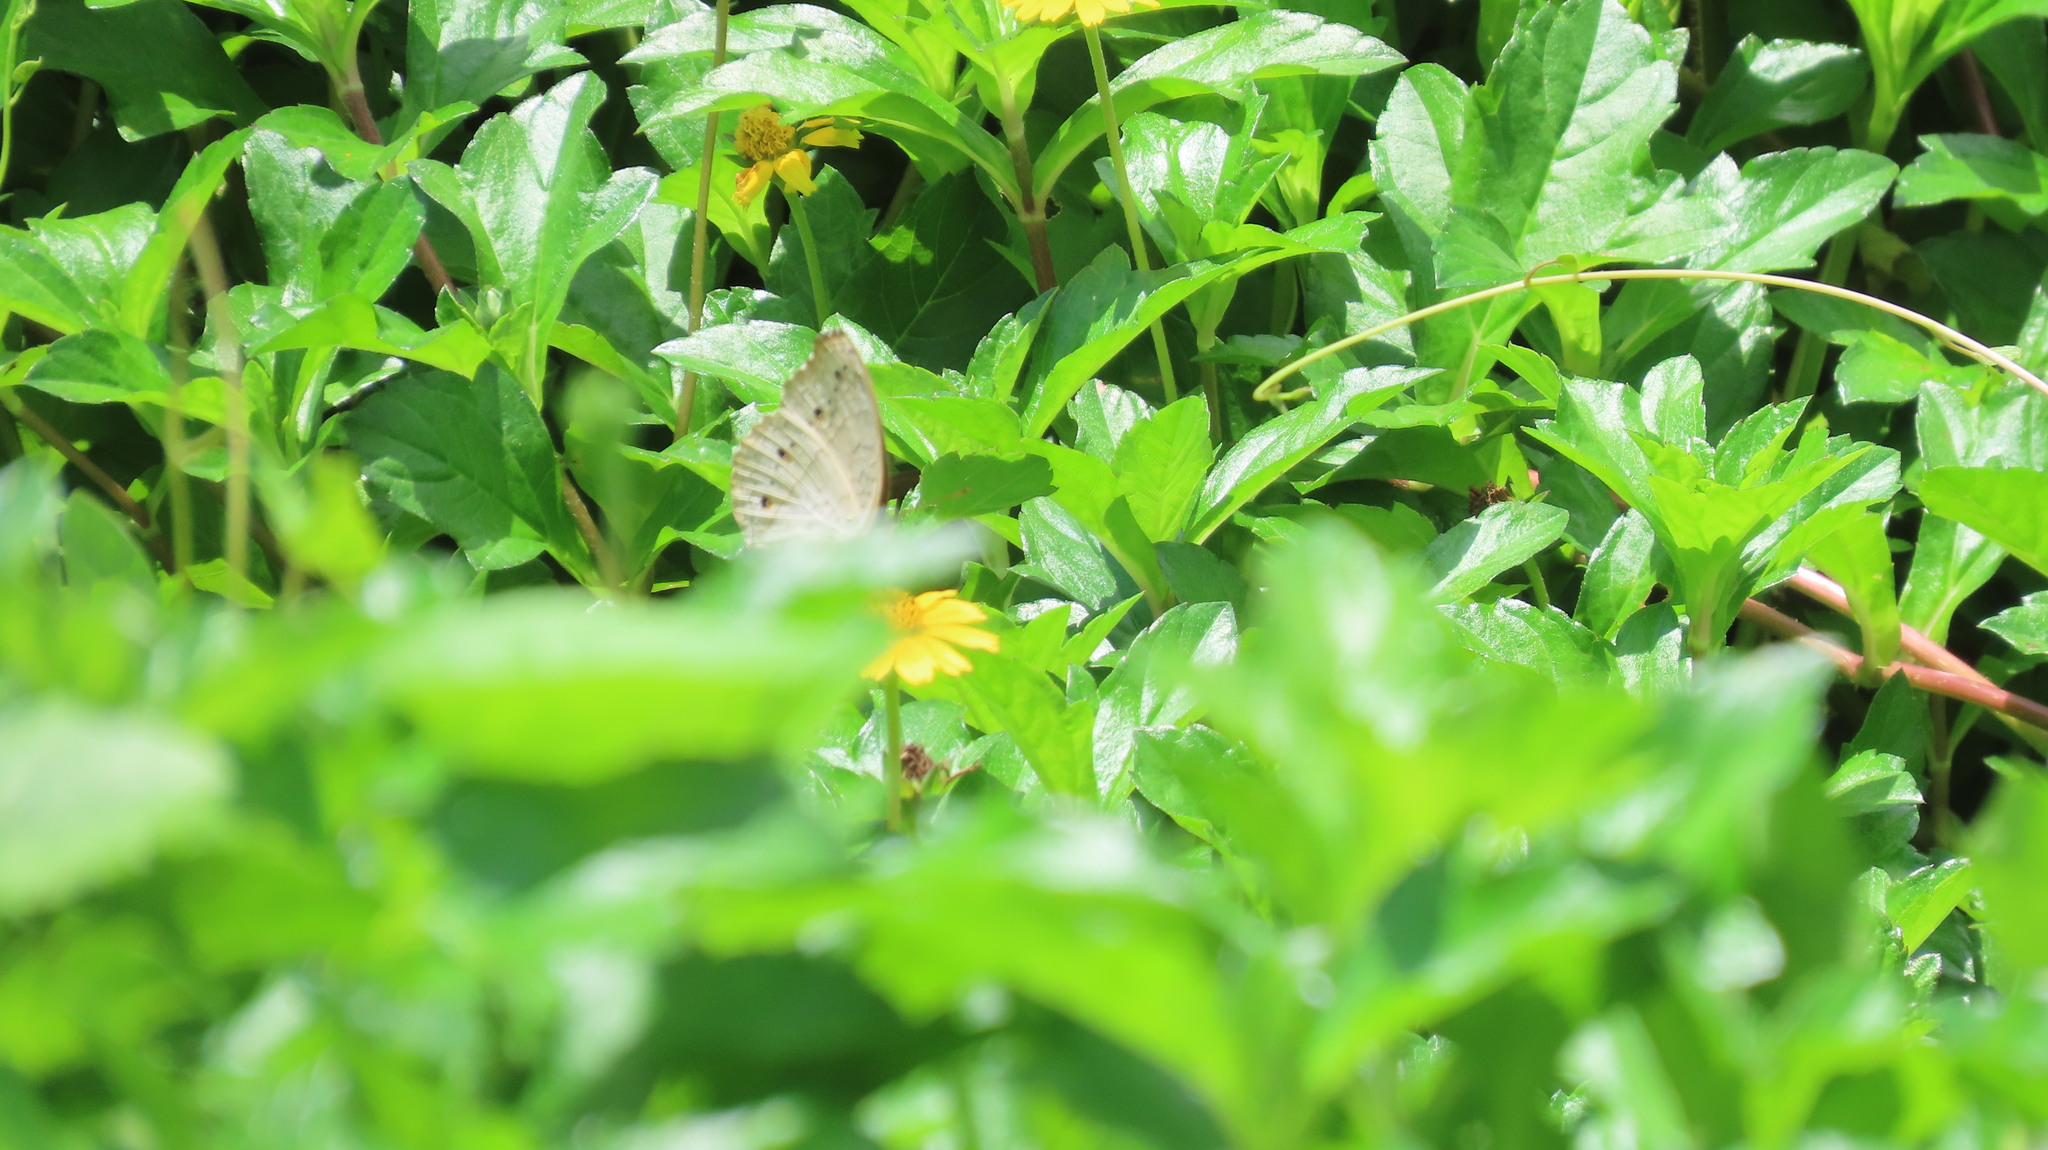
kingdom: Animalia
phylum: Arthropoda
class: Insecta
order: Lepidoptera
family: Nymphalidae
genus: Junonia
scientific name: Junonia atlites
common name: Grey pansy
